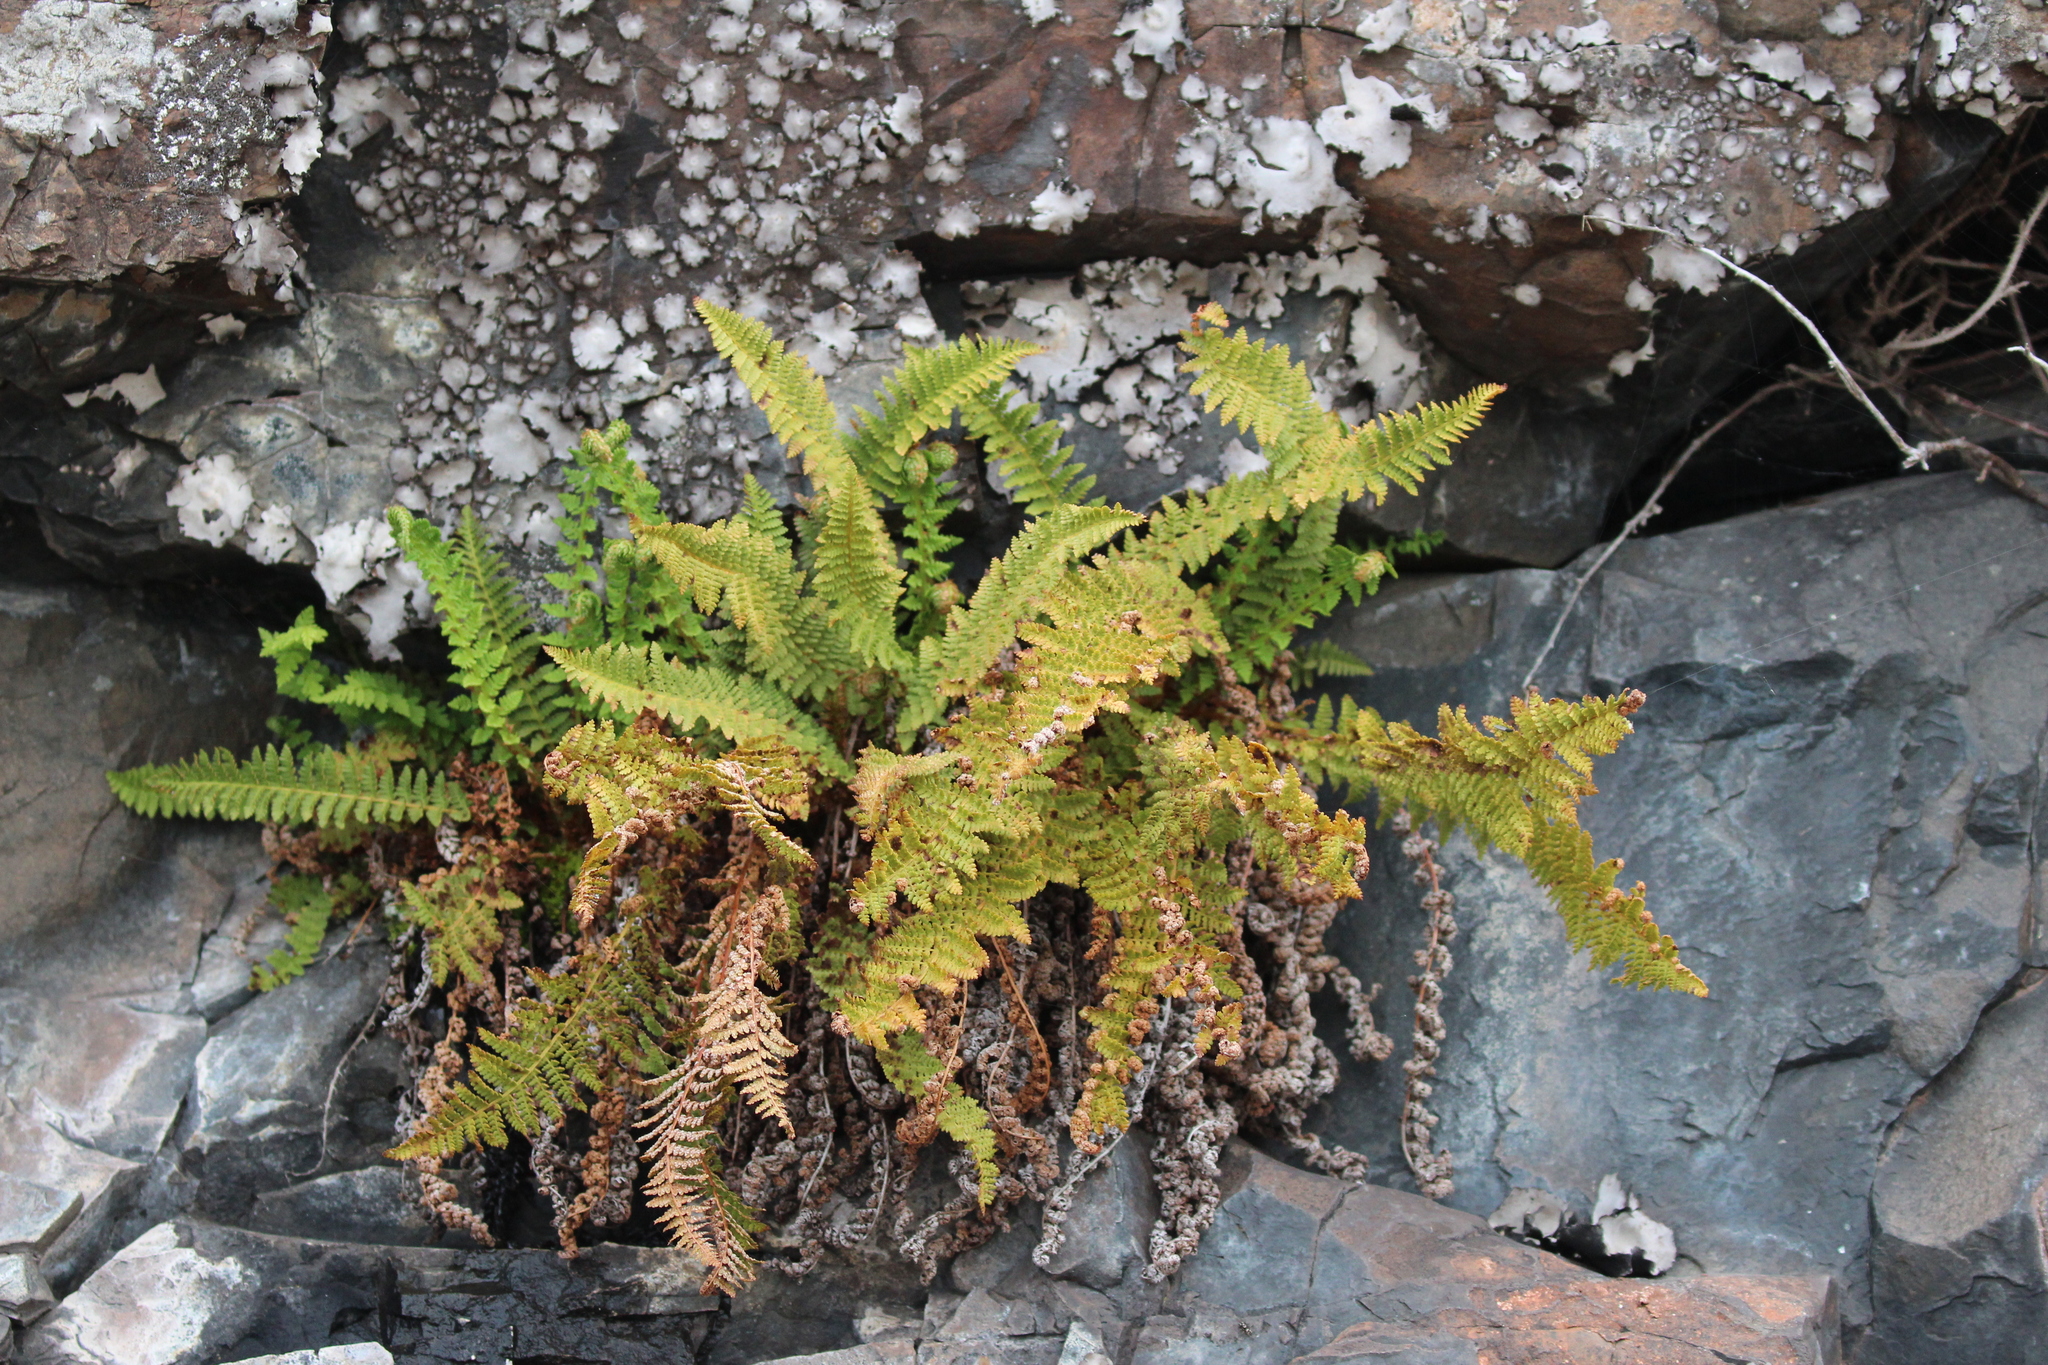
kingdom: Plantae
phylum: Tracheophyta
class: Polypodiopsida
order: Polypodiales
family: Dryopteridaceae
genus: Dryopteris
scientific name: Dryopteris fragrans
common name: Fragrant wood fern
